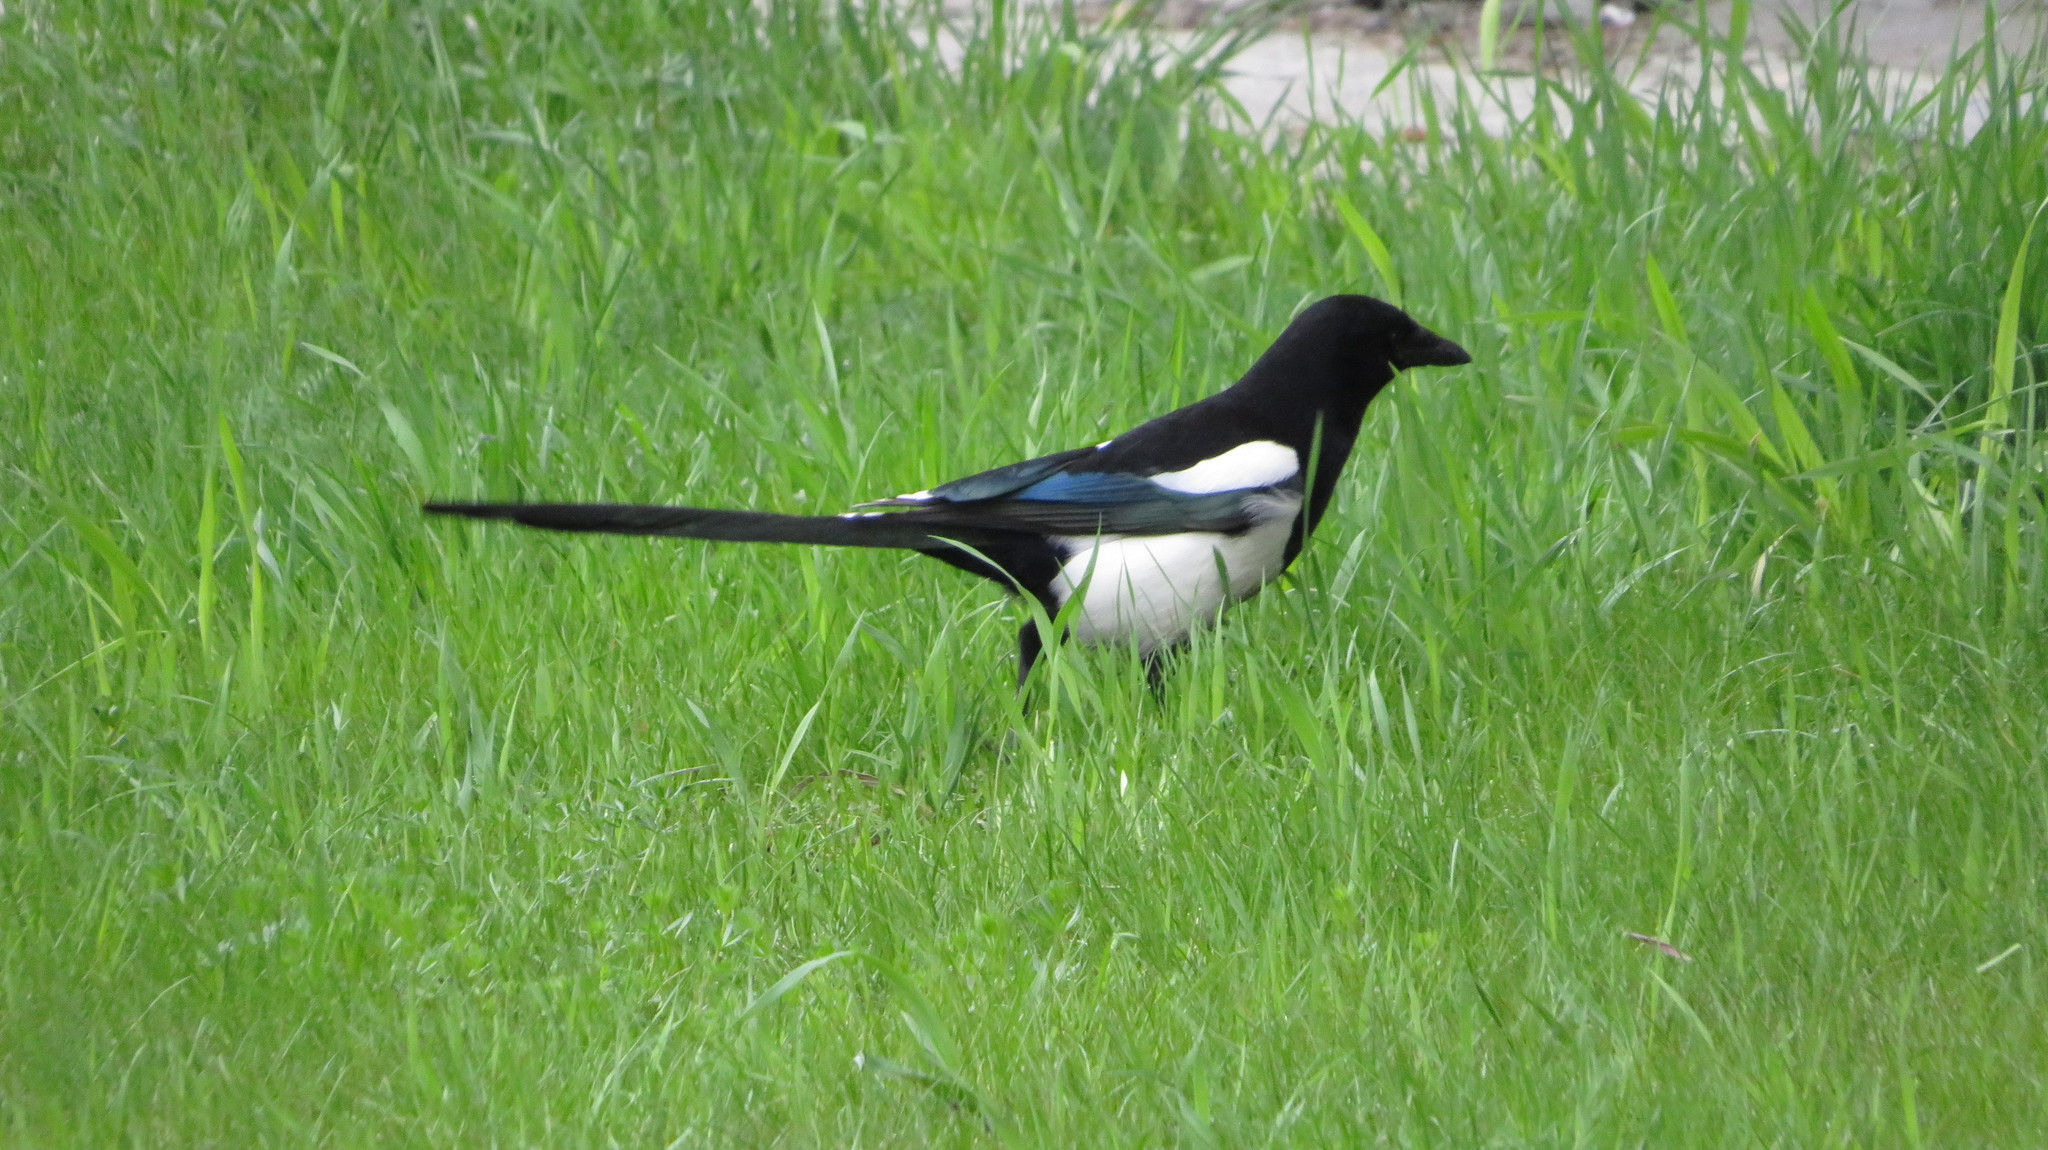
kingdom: Animalia
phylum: Chordata
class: Aves
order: Passeriformes
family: Corvidae
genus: Pica
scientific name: Pica pica
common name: Eurasian magpie
